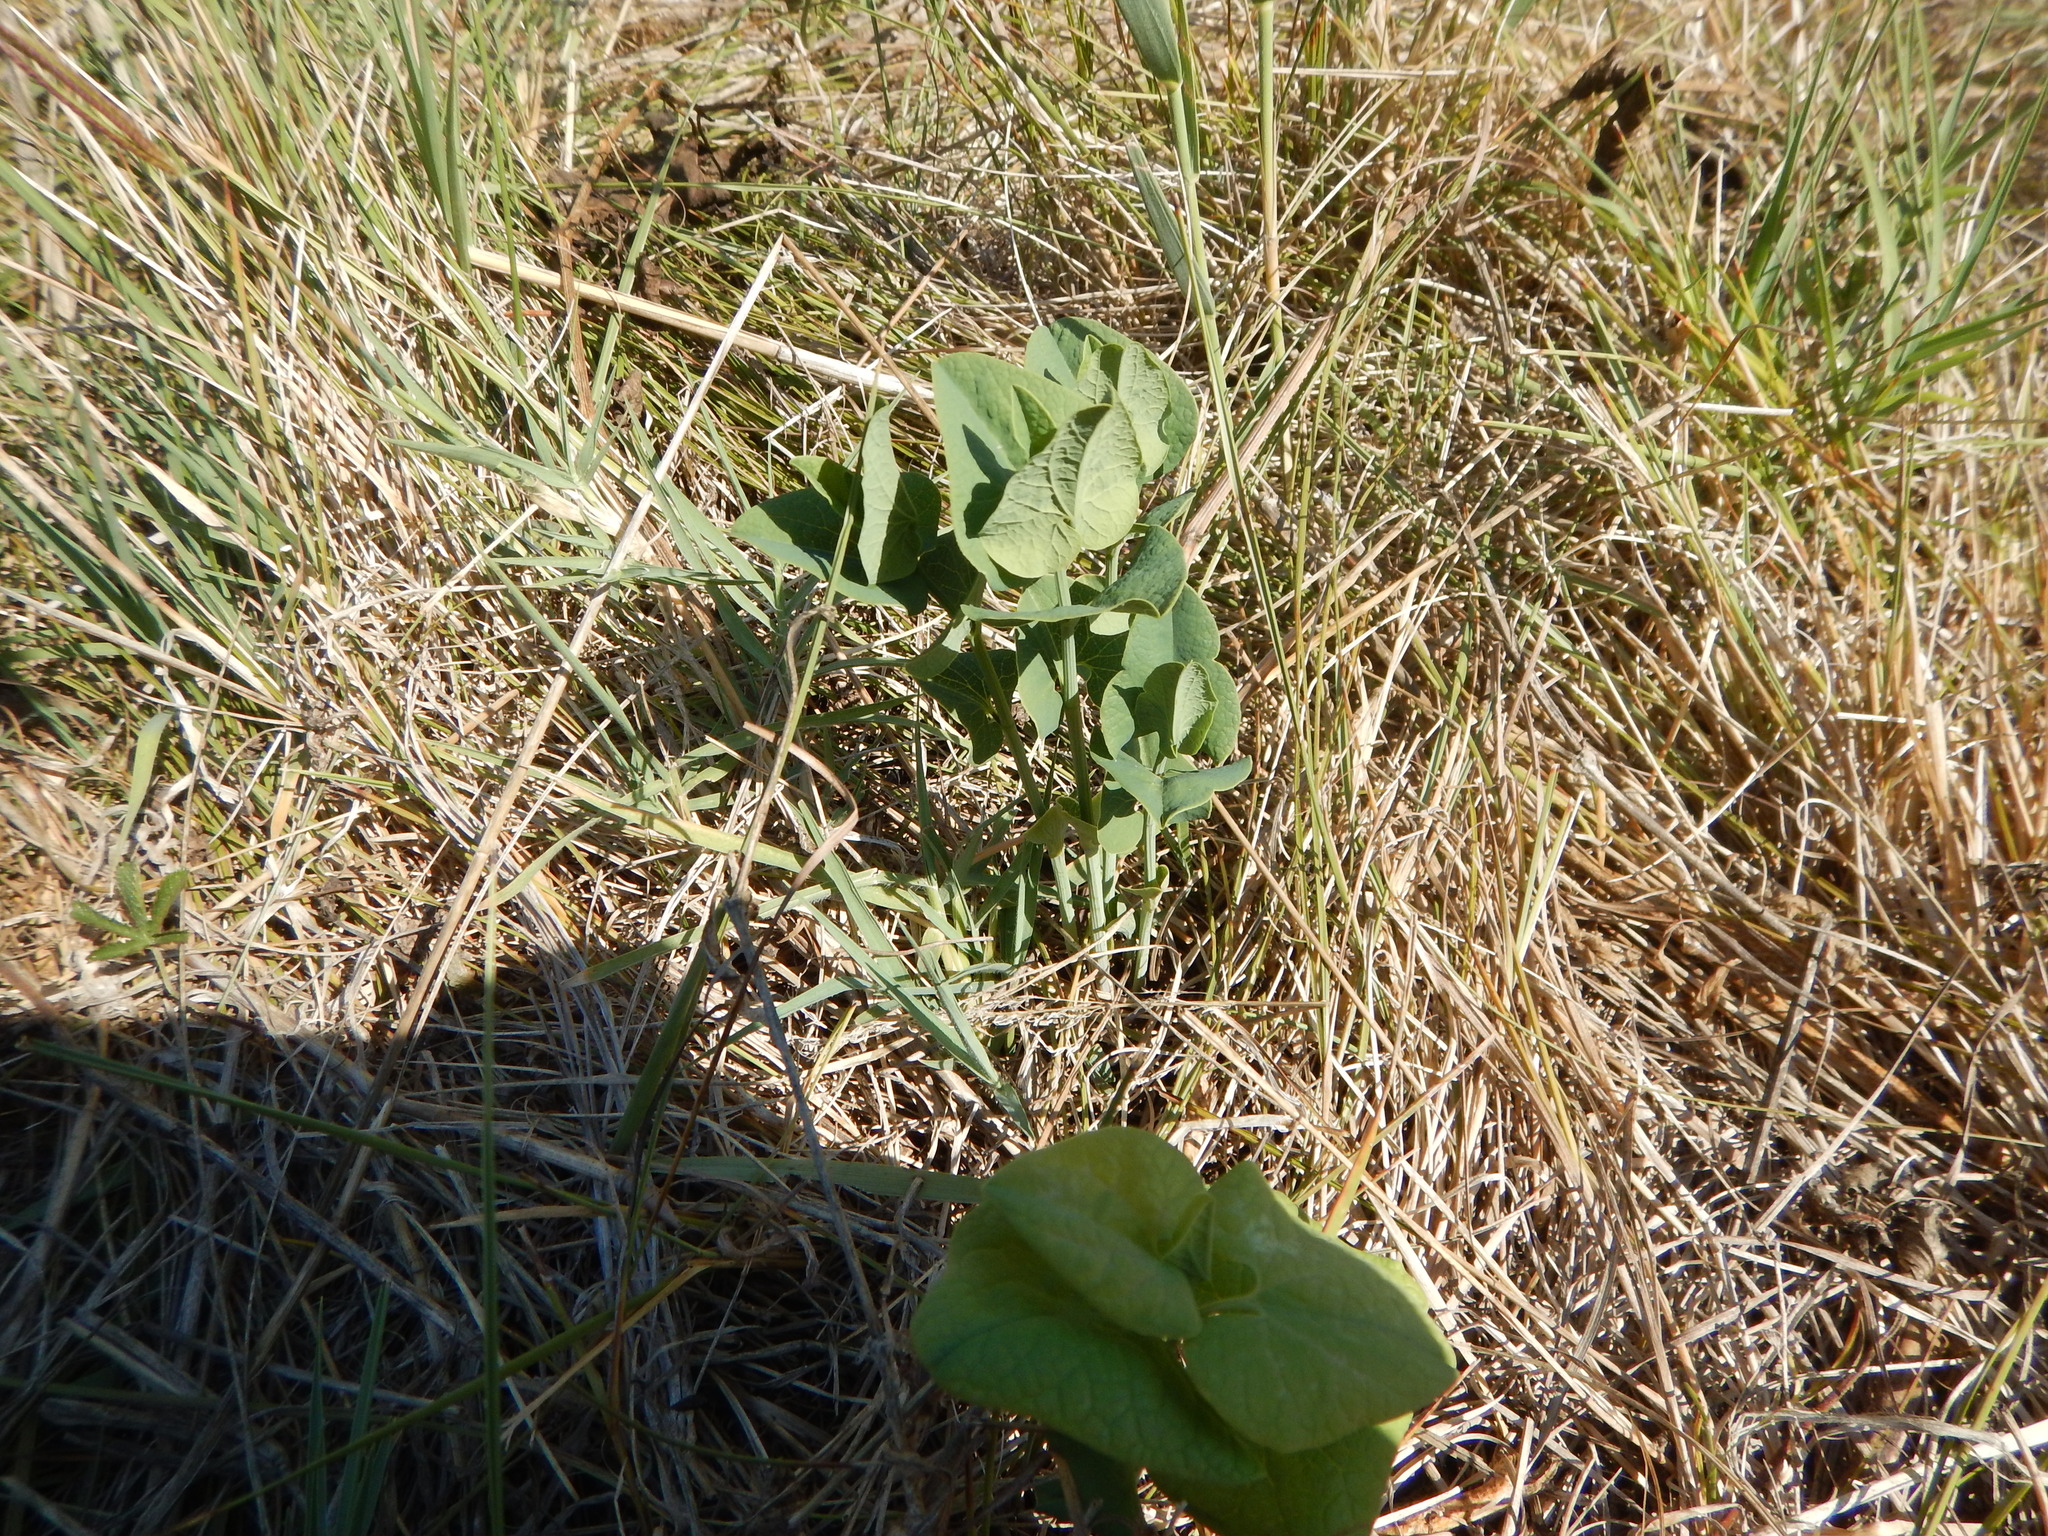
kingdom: Plantae
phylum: Tracheophyta
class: Magnoliopsida
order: Piperales
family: Aristolochiaceae
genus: Aristolochia
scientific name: Aristolochia clematitis
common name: Birthwort
